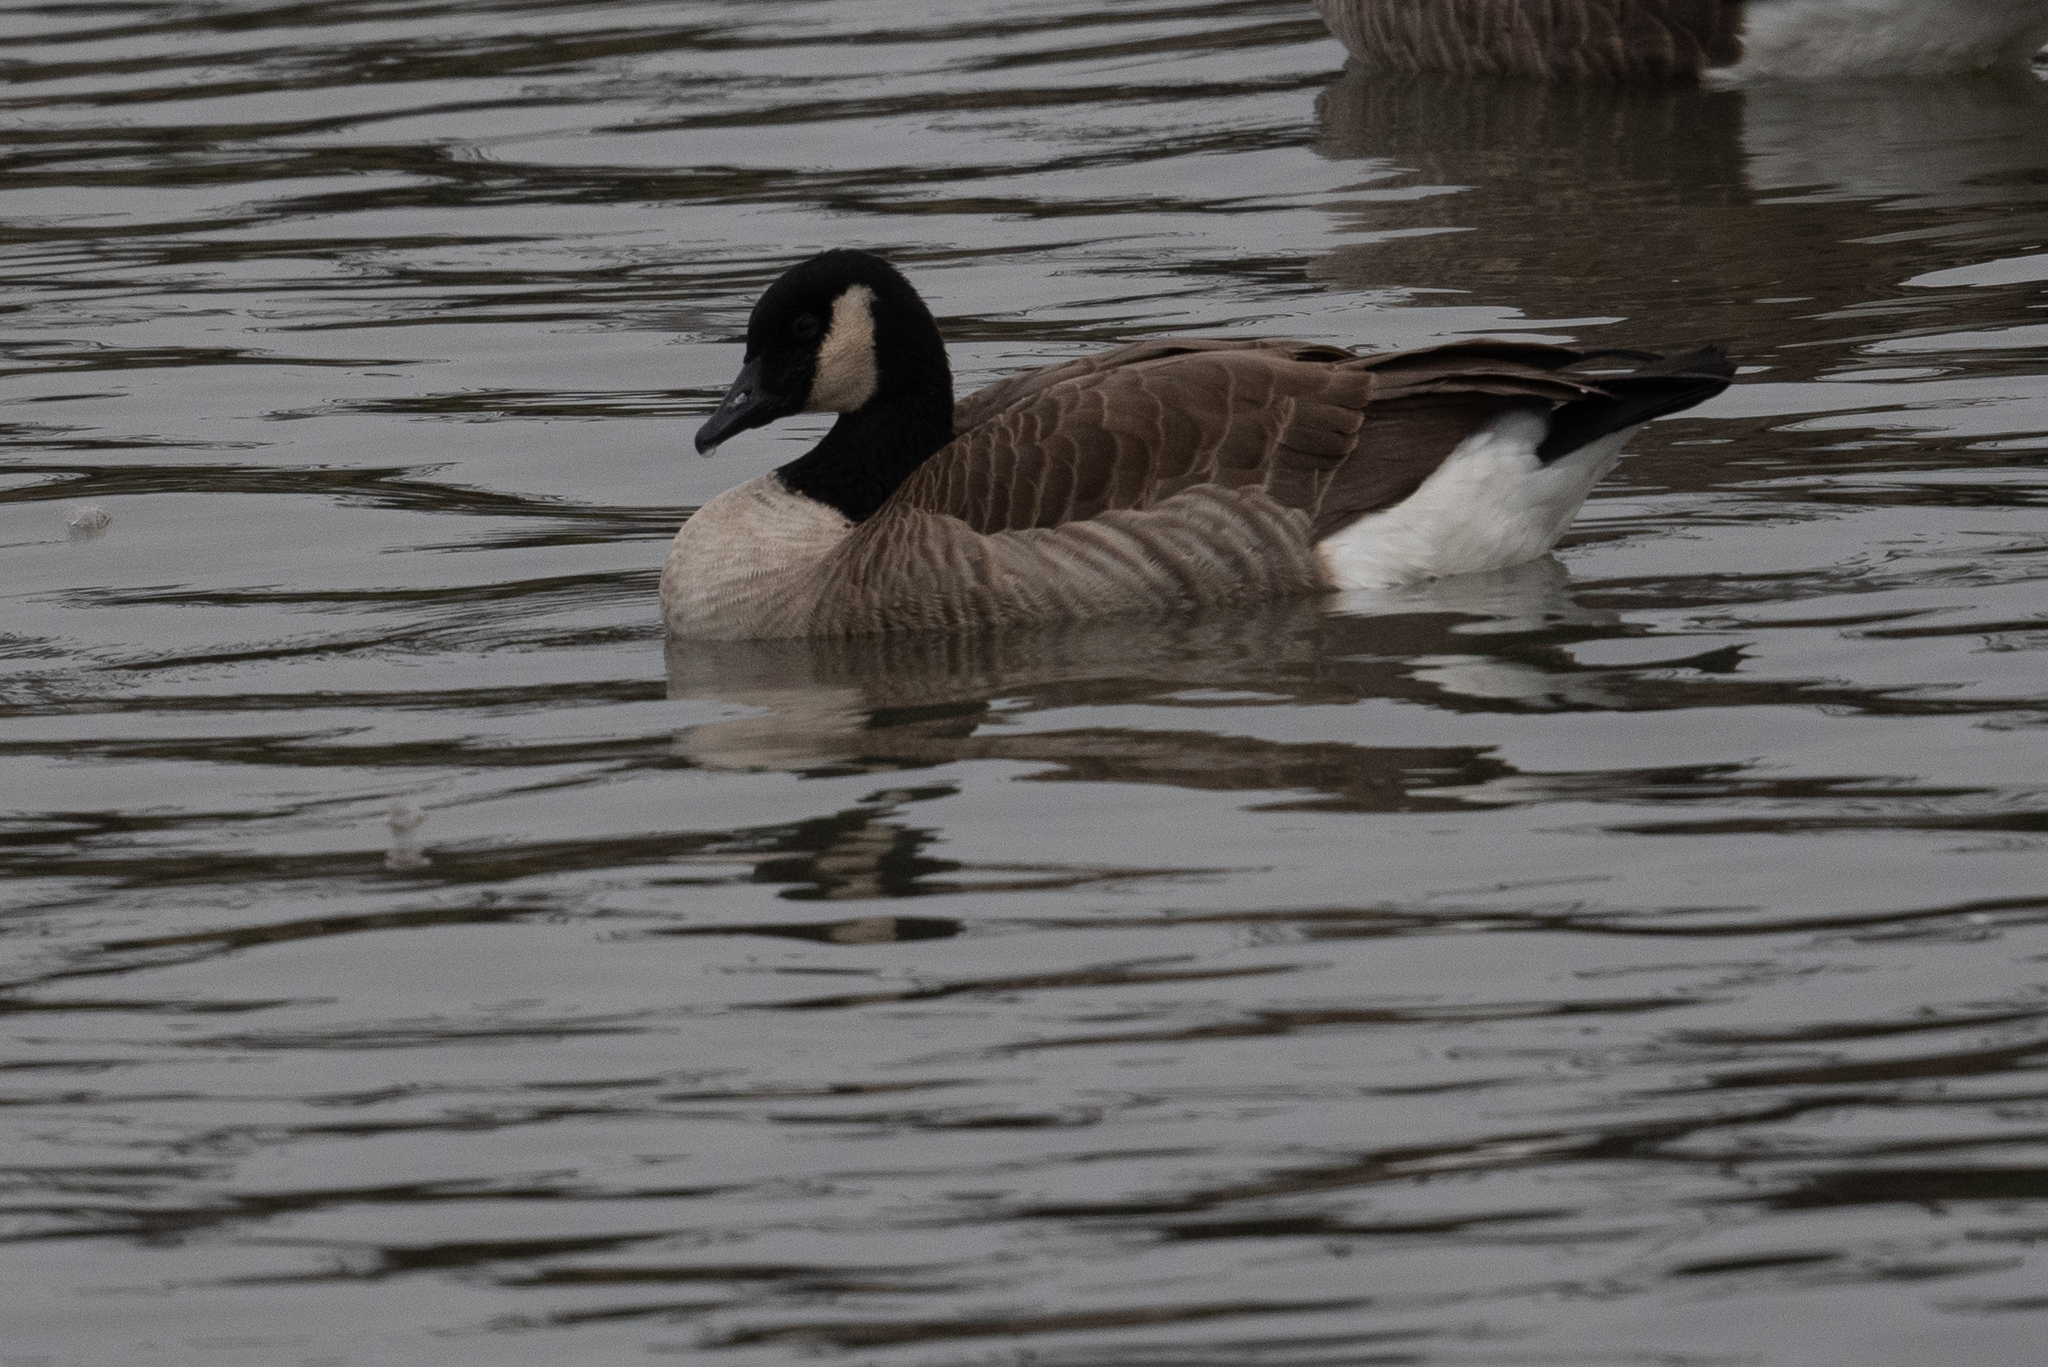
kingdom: Animalia
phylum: Chordata
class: Aves
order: Anseriformes
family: Anatidae
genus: Branta
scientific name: Branta canadensis
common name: Canada goose
